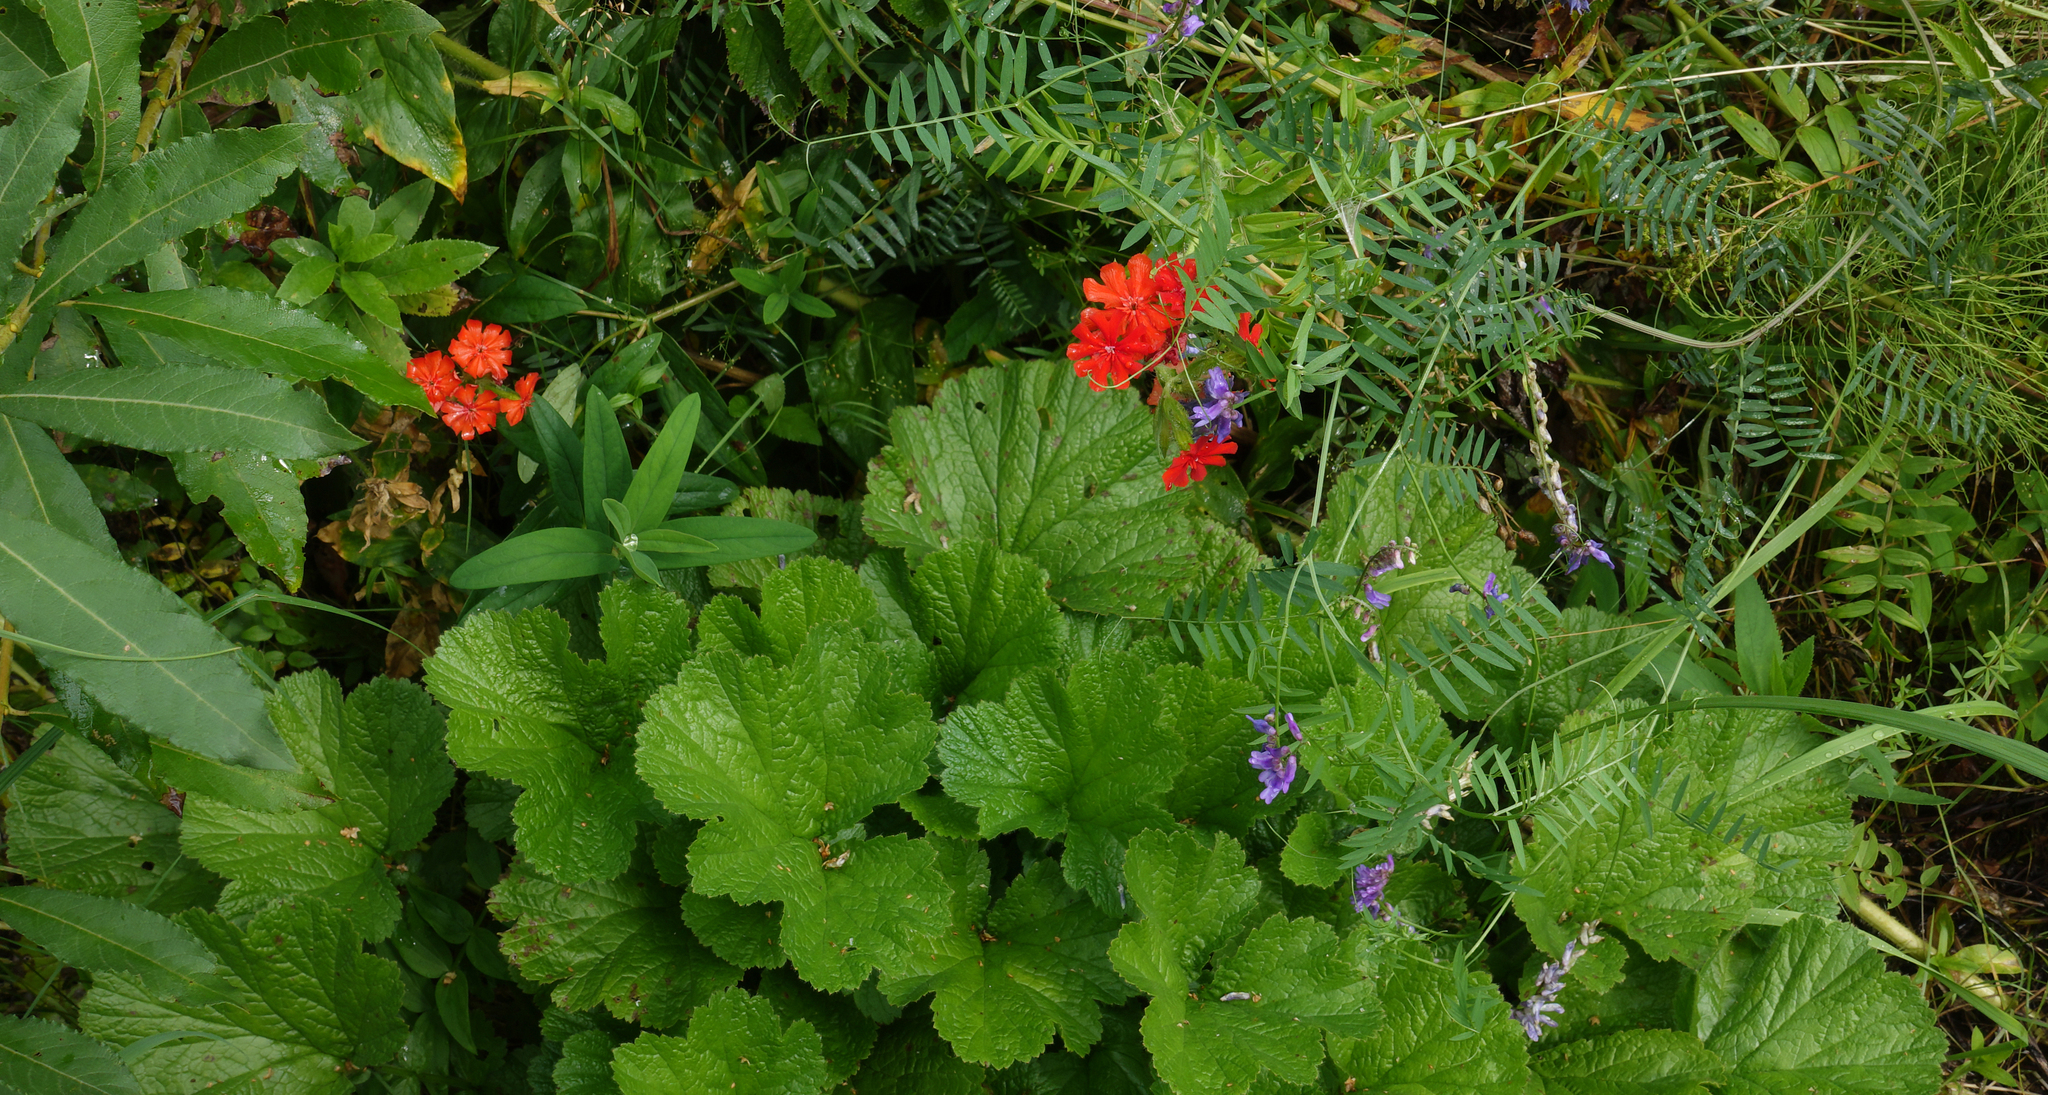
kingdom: Plantae
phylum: Tracheophyta
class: Magnoliopsida
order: Rosales
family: Rosaceae
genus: Rubus
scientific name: Rubus chamaemorus
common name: Cloudberry
